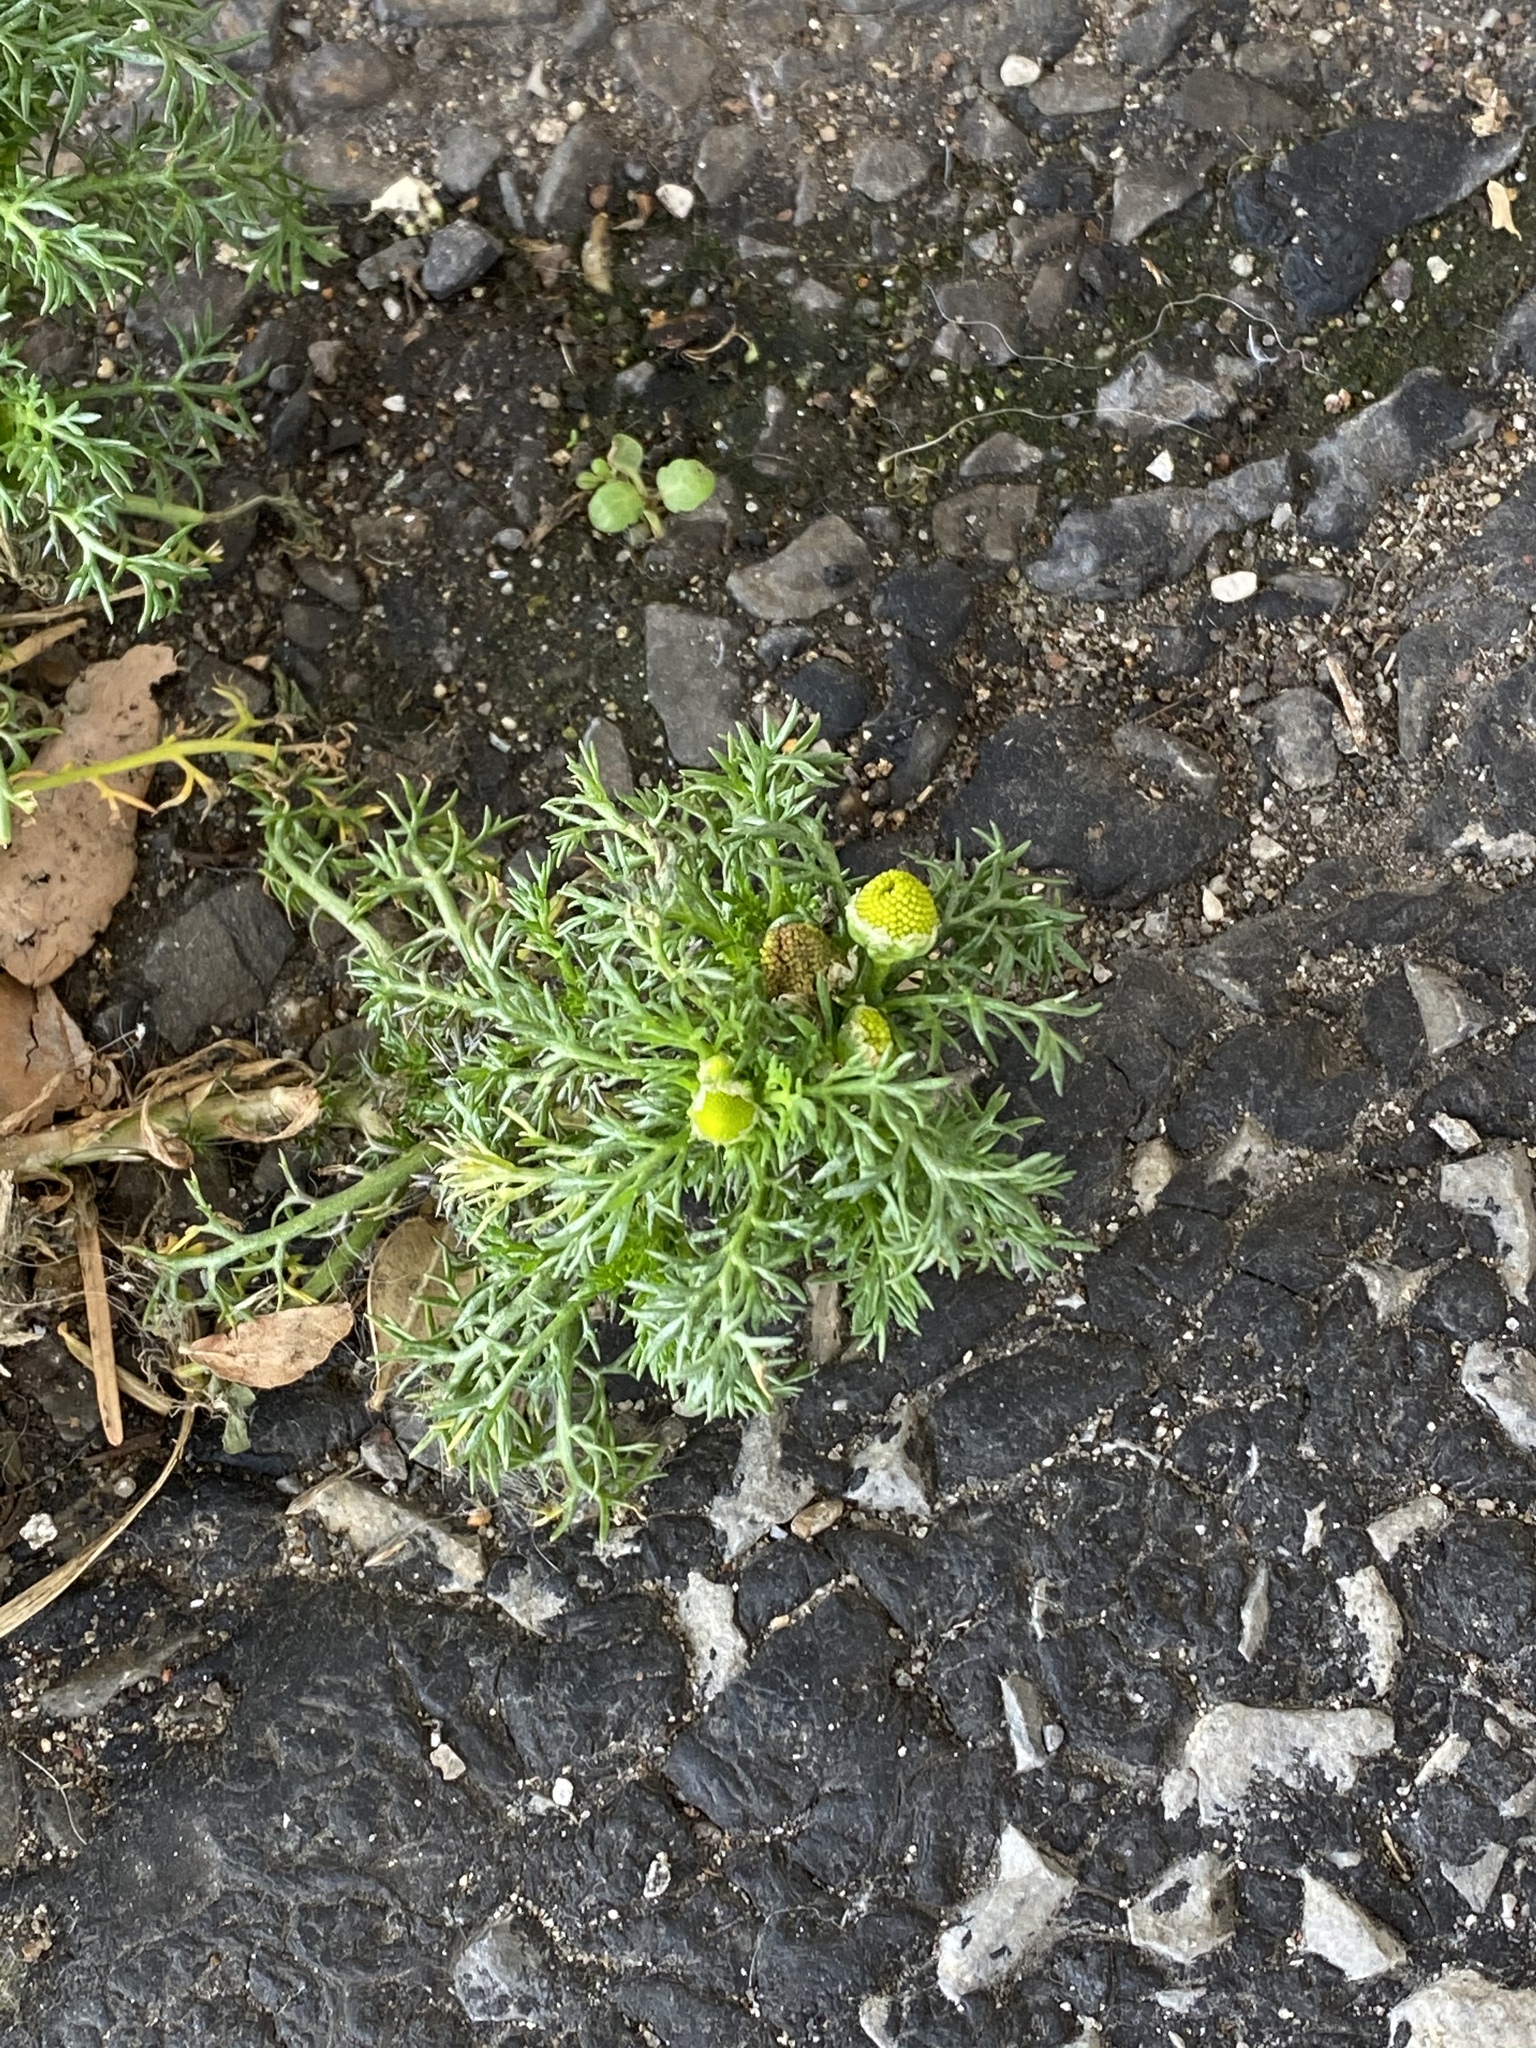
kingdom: Plantae
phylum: Tracheophyta
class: Magnoliopsida
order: Asterales
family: Asteraceae
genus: Matricaria
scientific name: Matricaria discoidea
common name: Disc mayweed
